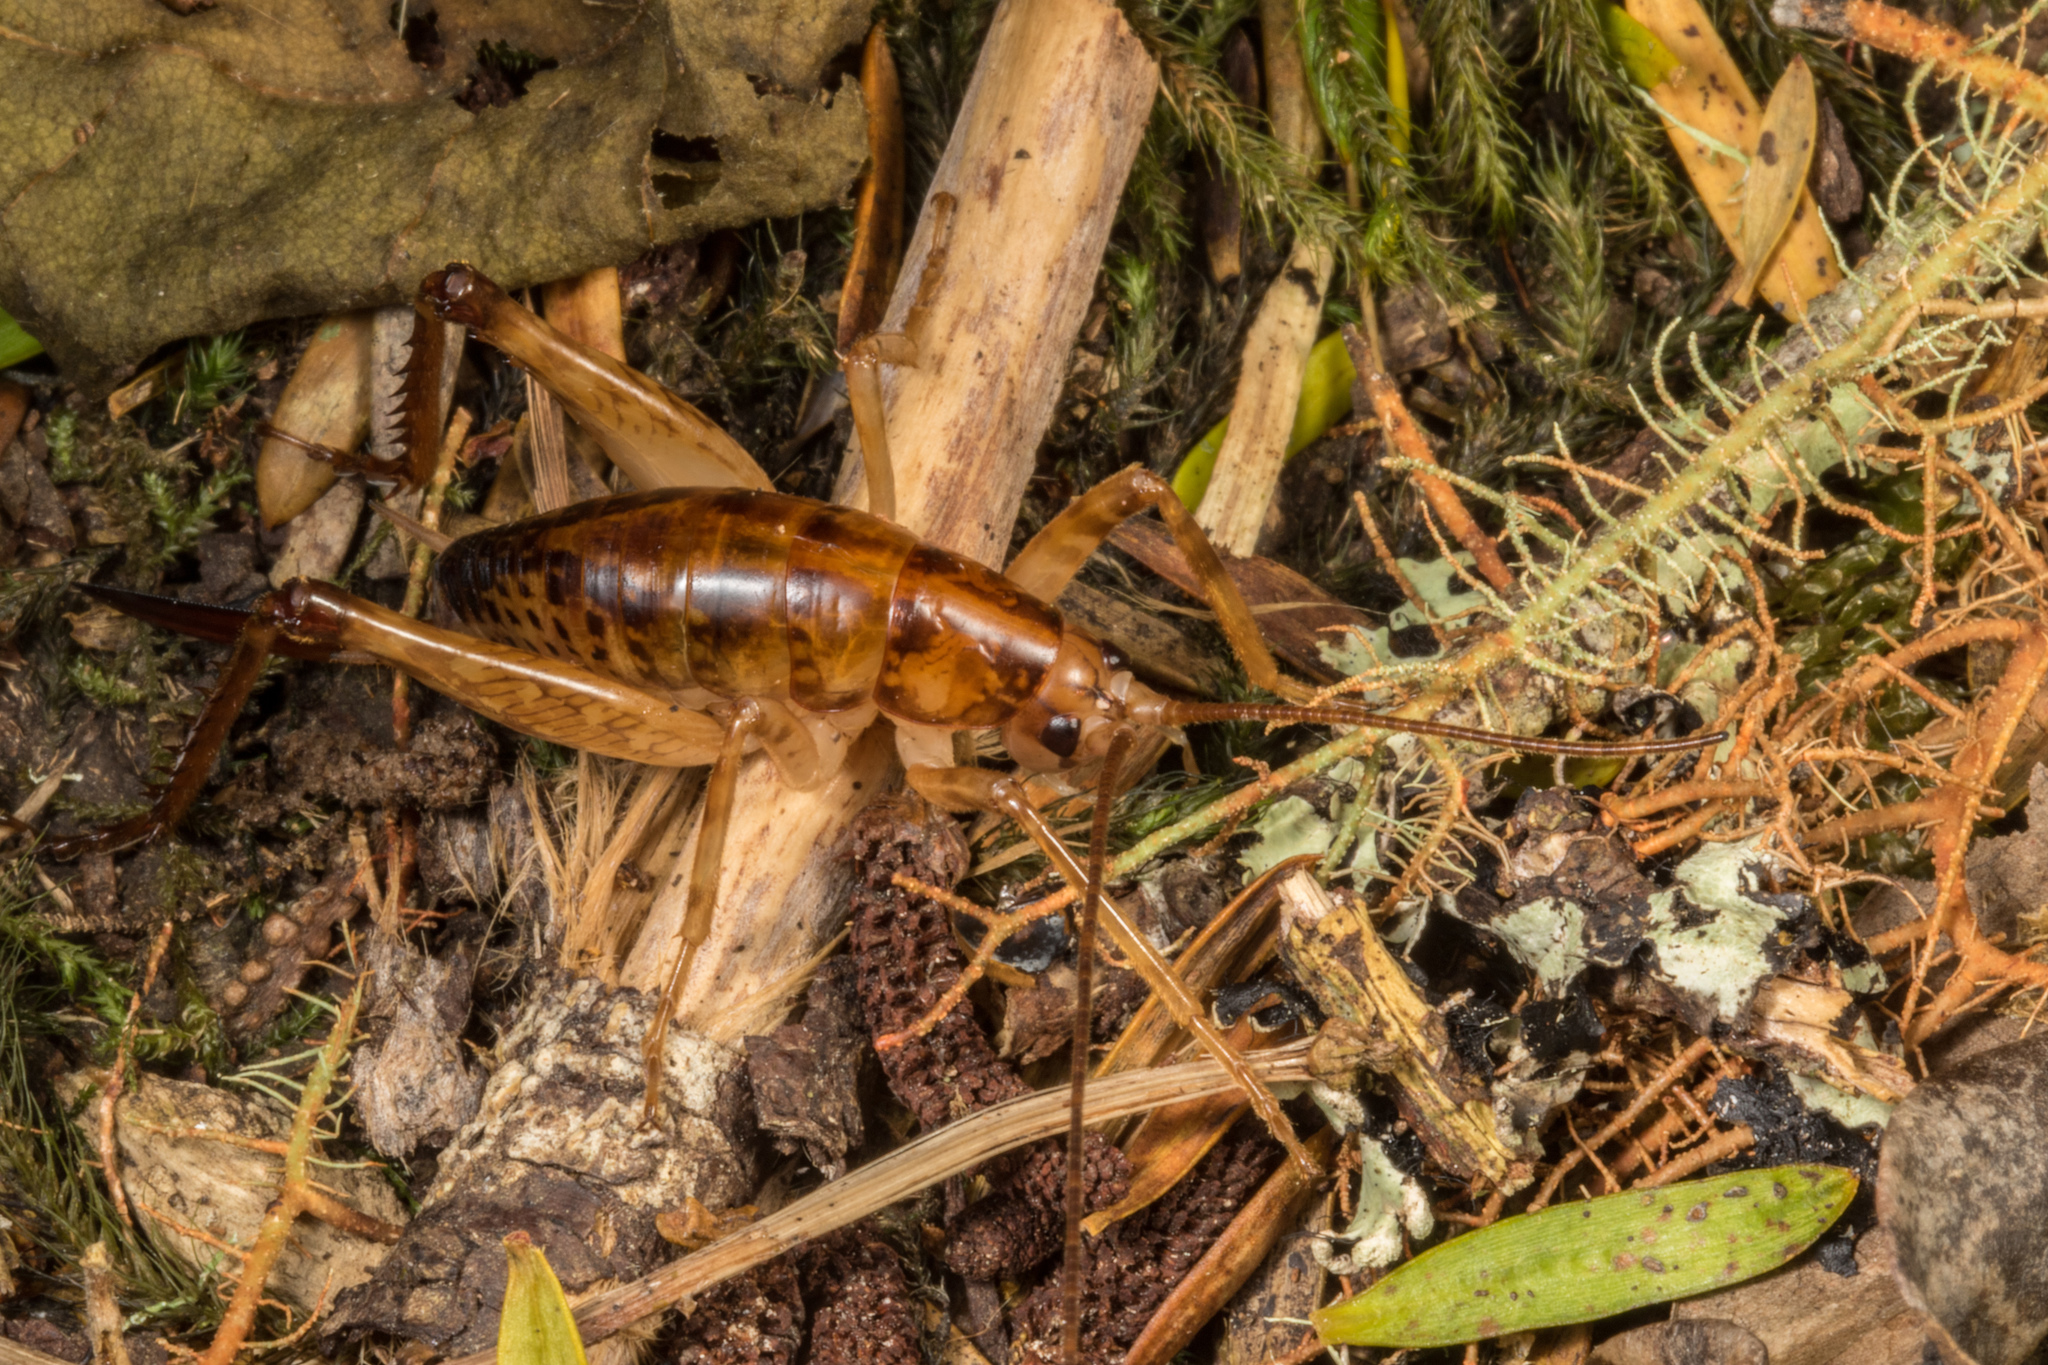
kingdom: Animalia
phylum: Arthropoda
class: Insecta
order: Orthoptera
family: Rhaphidophoridae
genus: Talitropsis
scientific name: Talitropsis sedilloti
